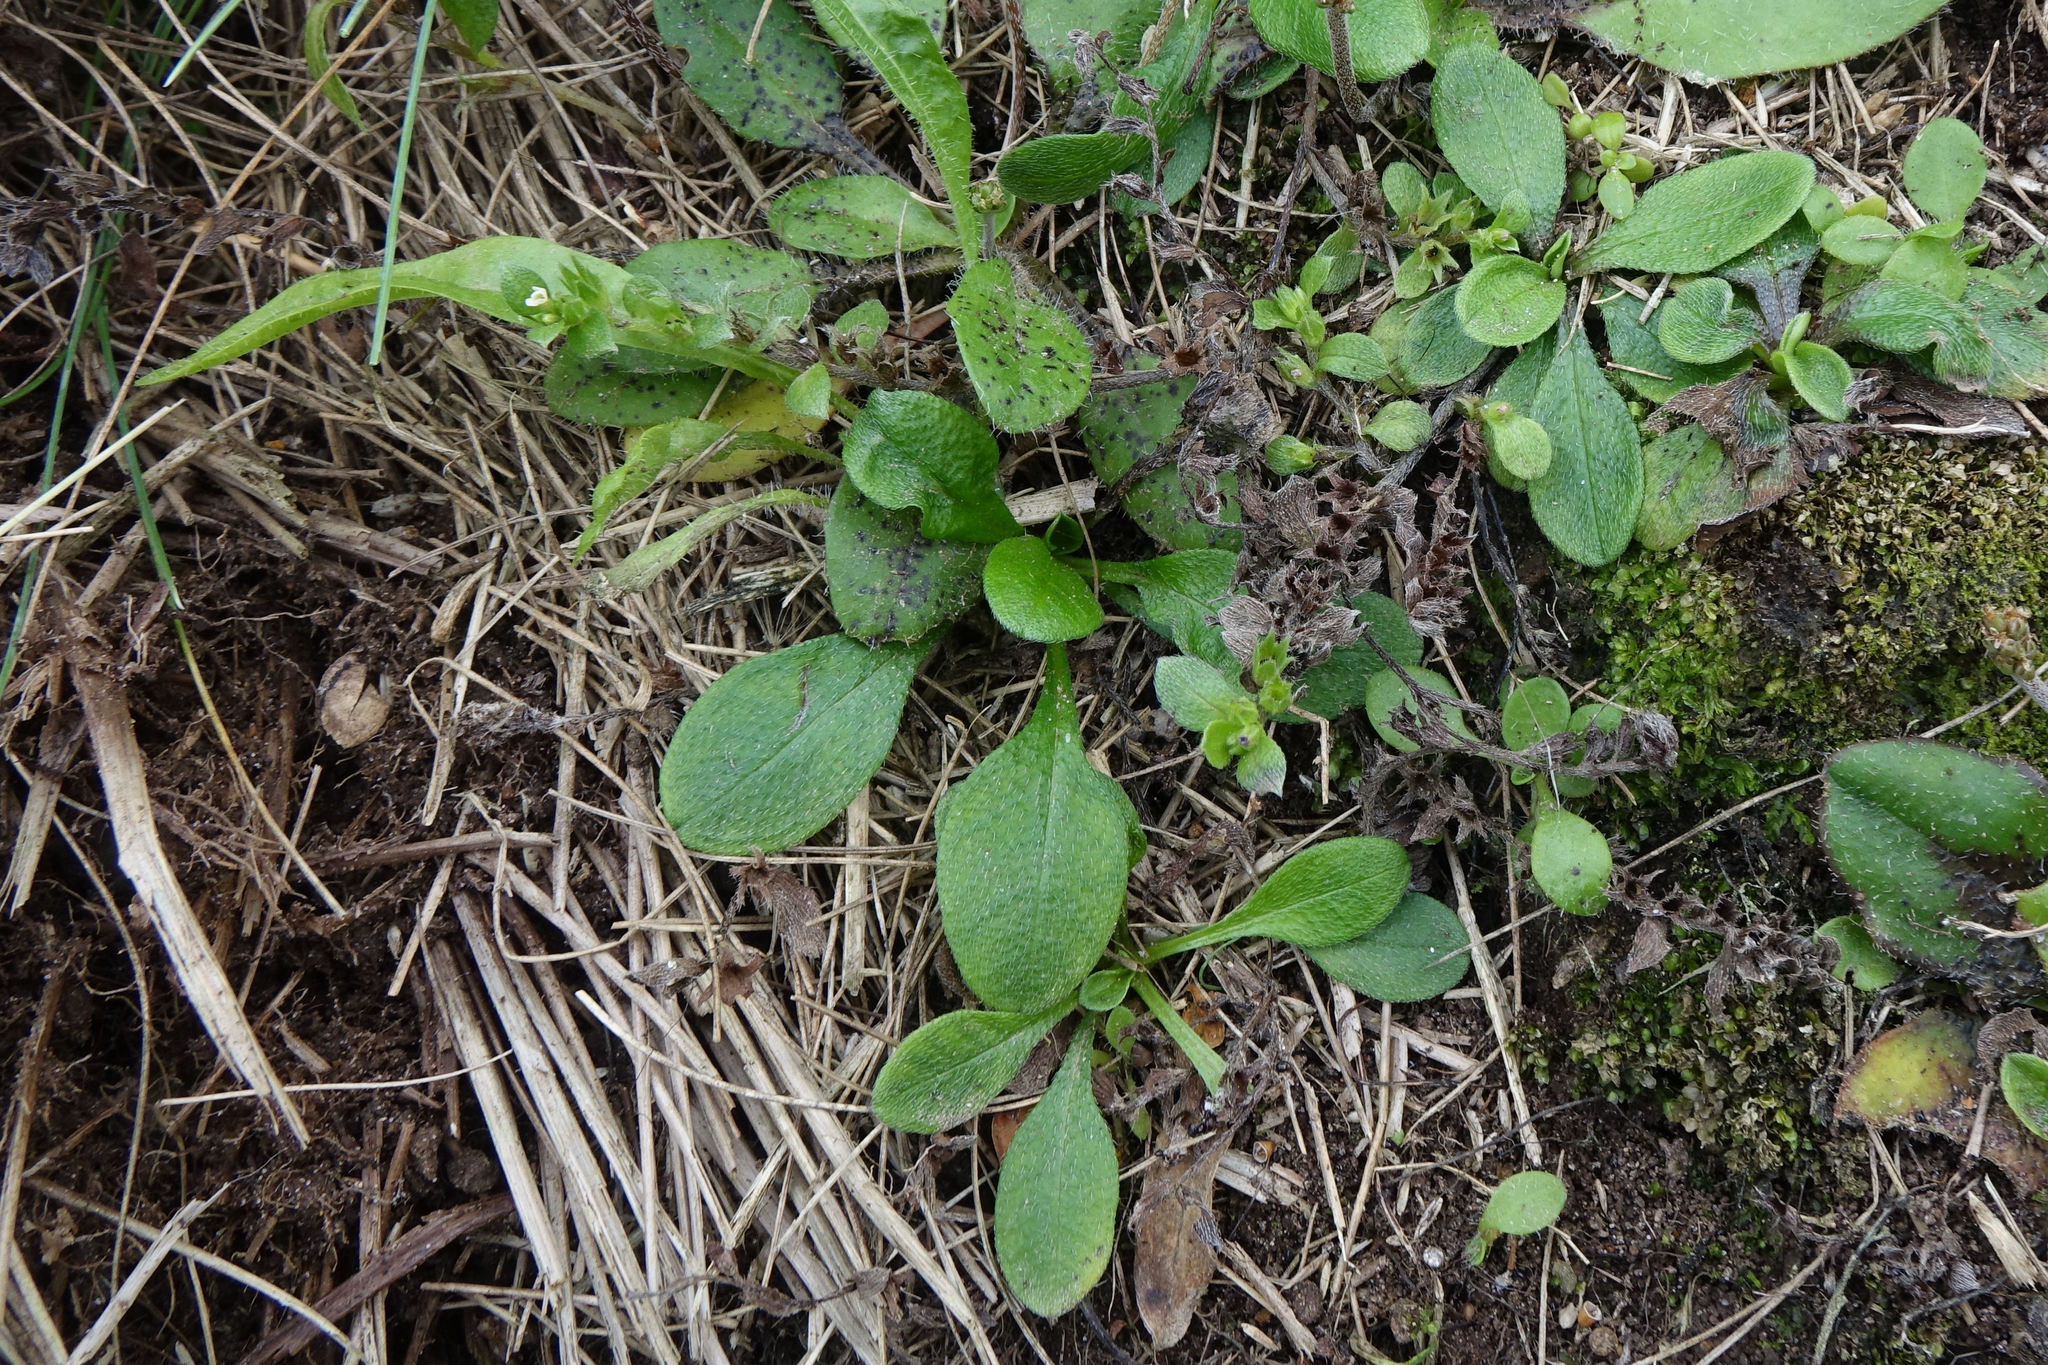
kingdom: Plantae
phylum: Tracheophyta
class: Magnoliopsida
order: Boraginales
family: Boraginaceae
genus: Myosotis
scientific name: Myosotis antarctica
